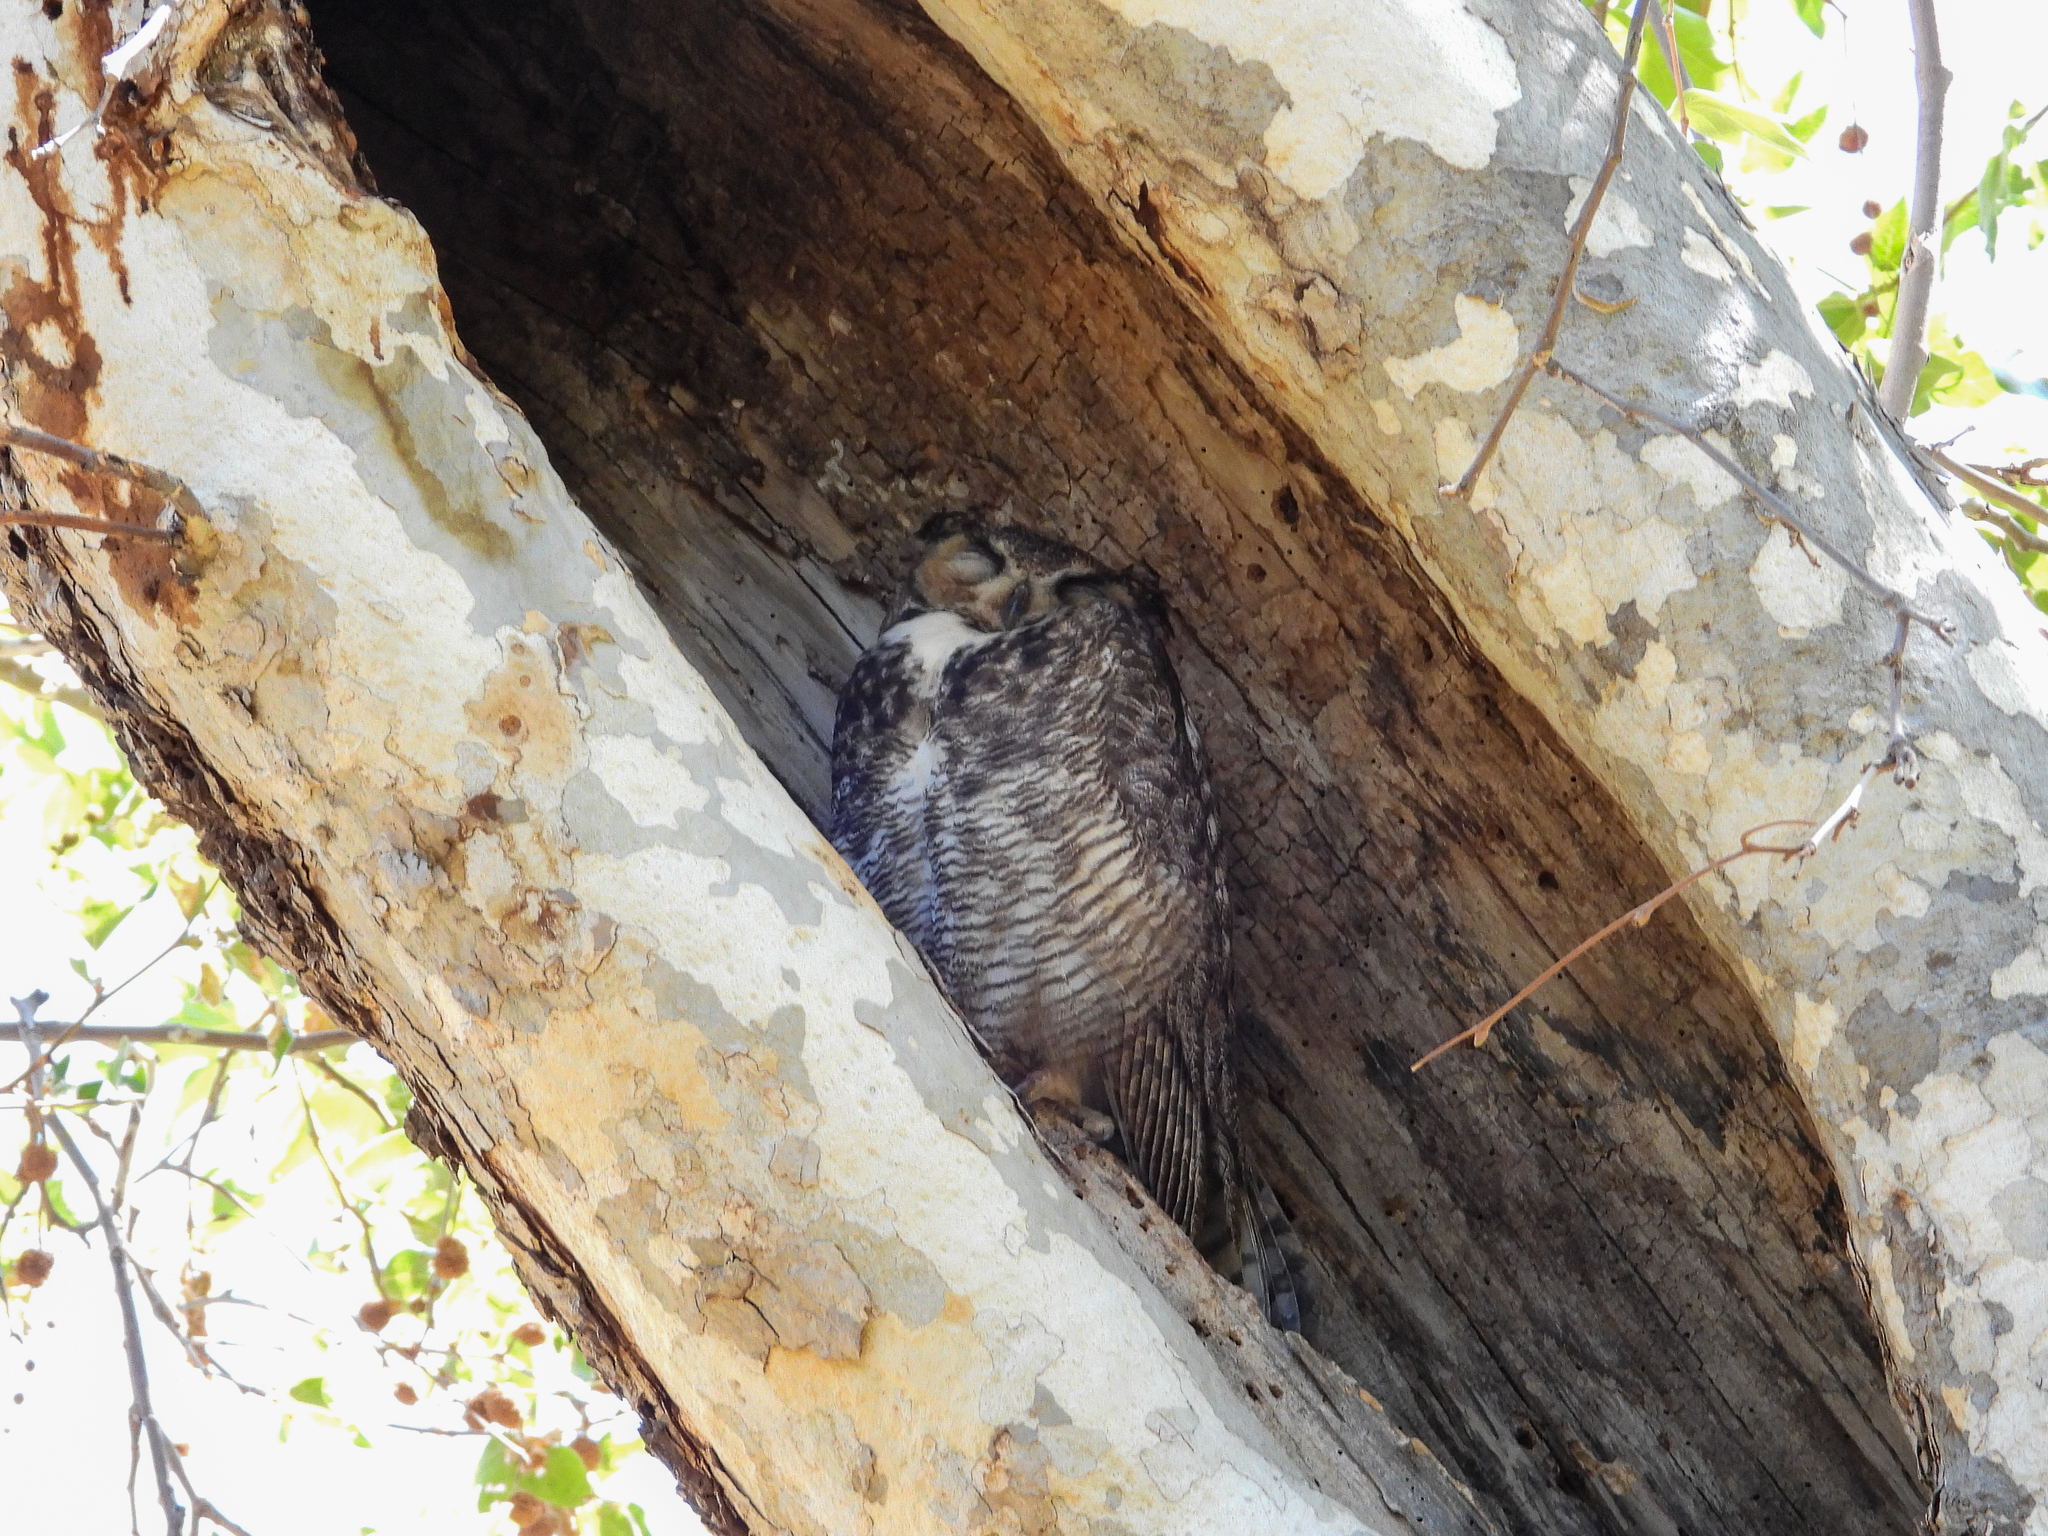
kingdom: Animalia
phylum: Chordata
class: Aves
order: Strigiformes
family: Strigidae
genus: Bubo
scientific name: Bubo virginianus
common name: Great horned owl
